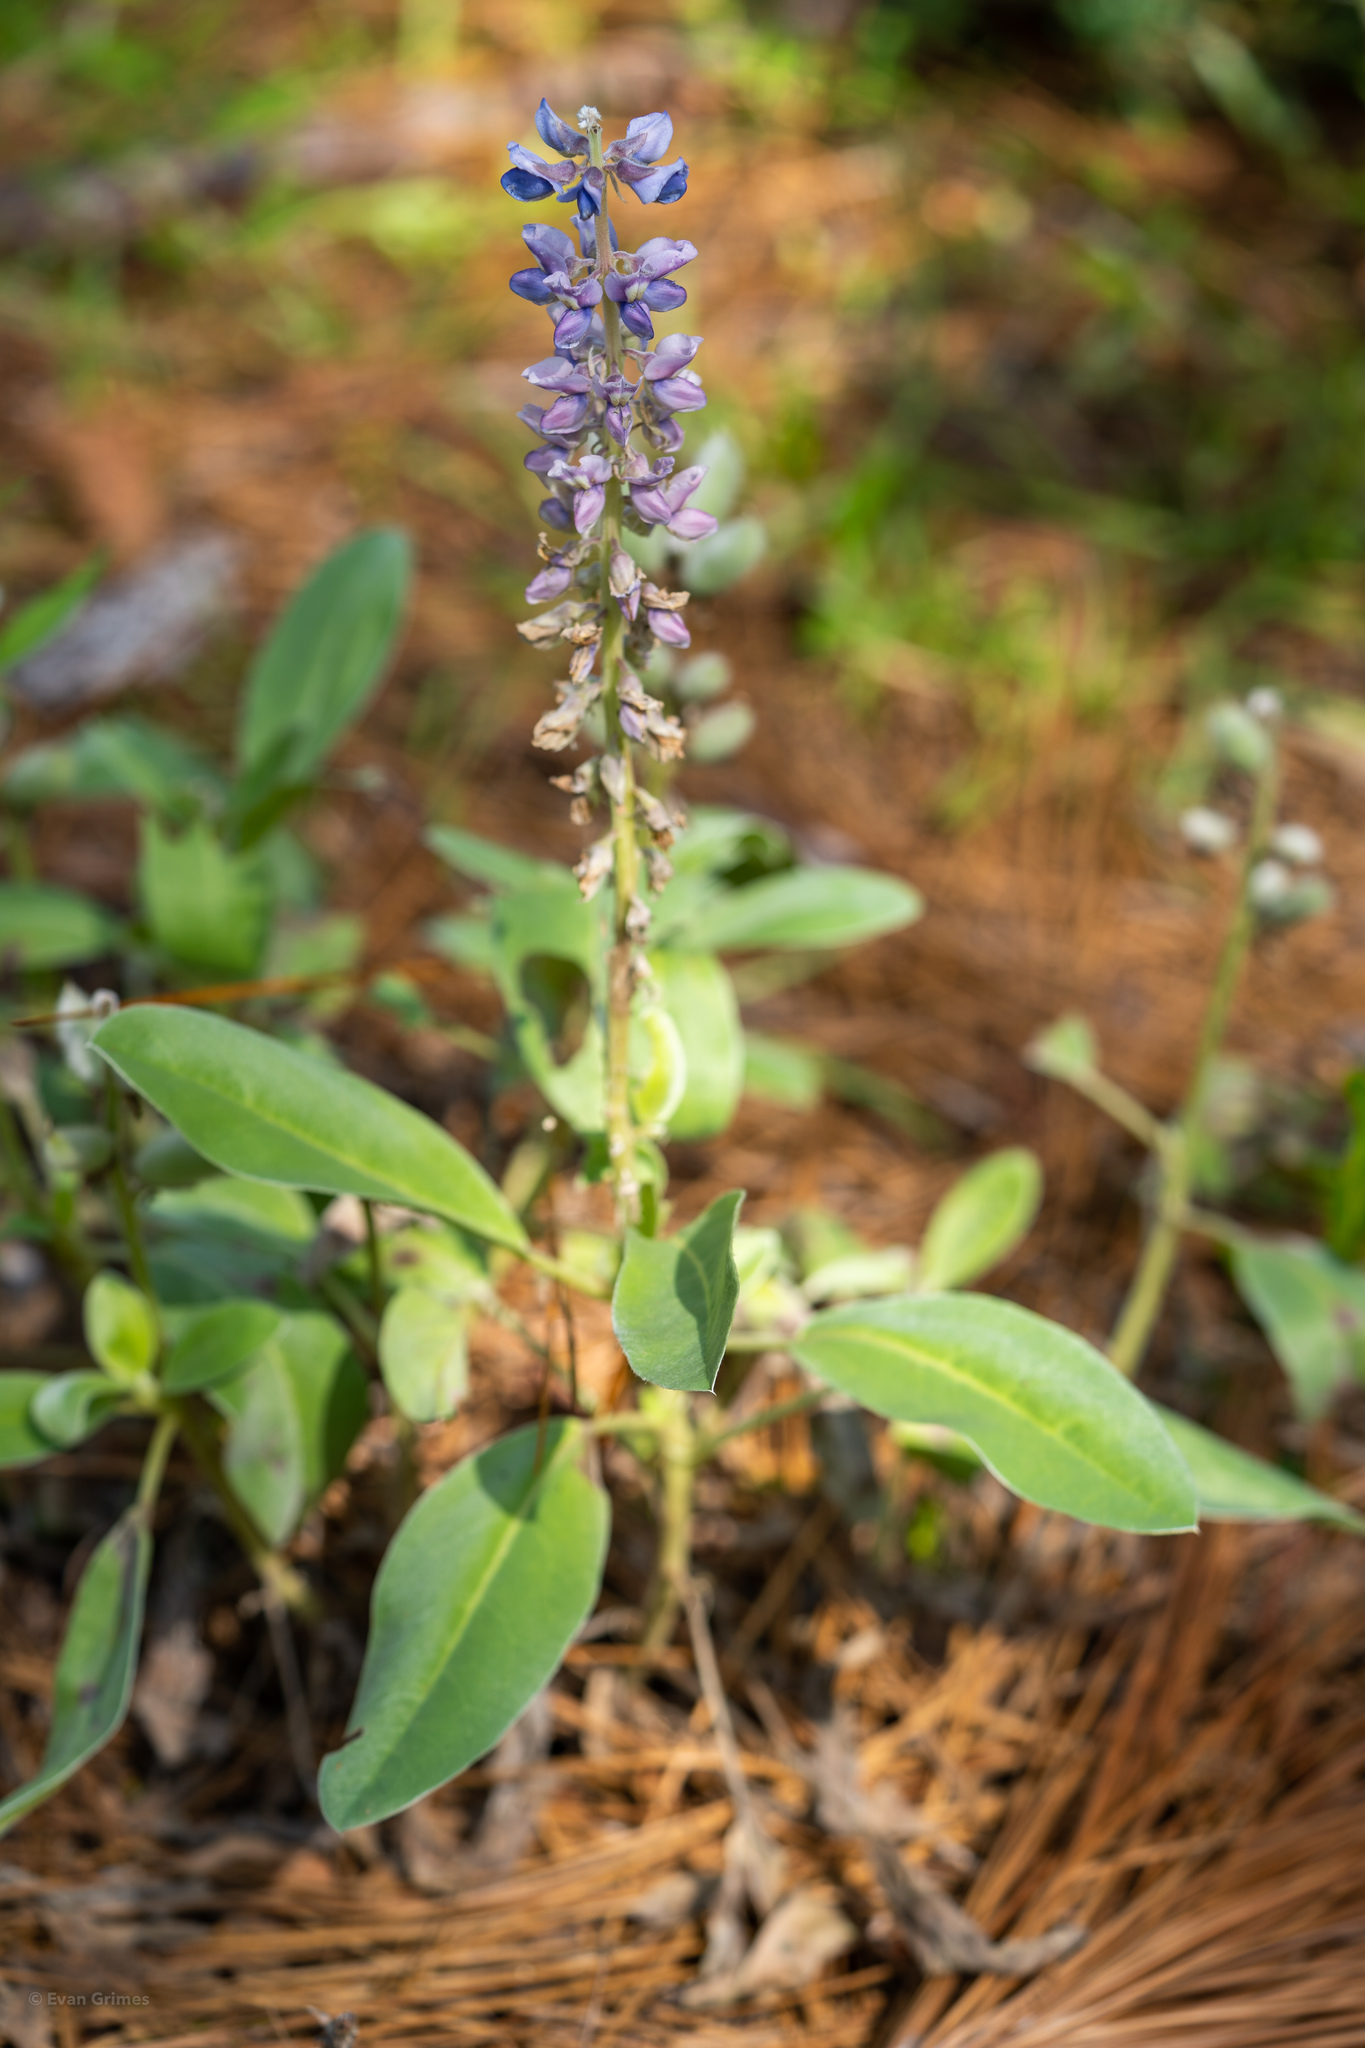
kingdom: Plantae
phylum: Tracheophyta
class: Magnoliopsida
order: Fabales
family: Fabaceae
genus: Lupinus
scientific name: Lupinus diffusus
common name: Oak ridge lupine
